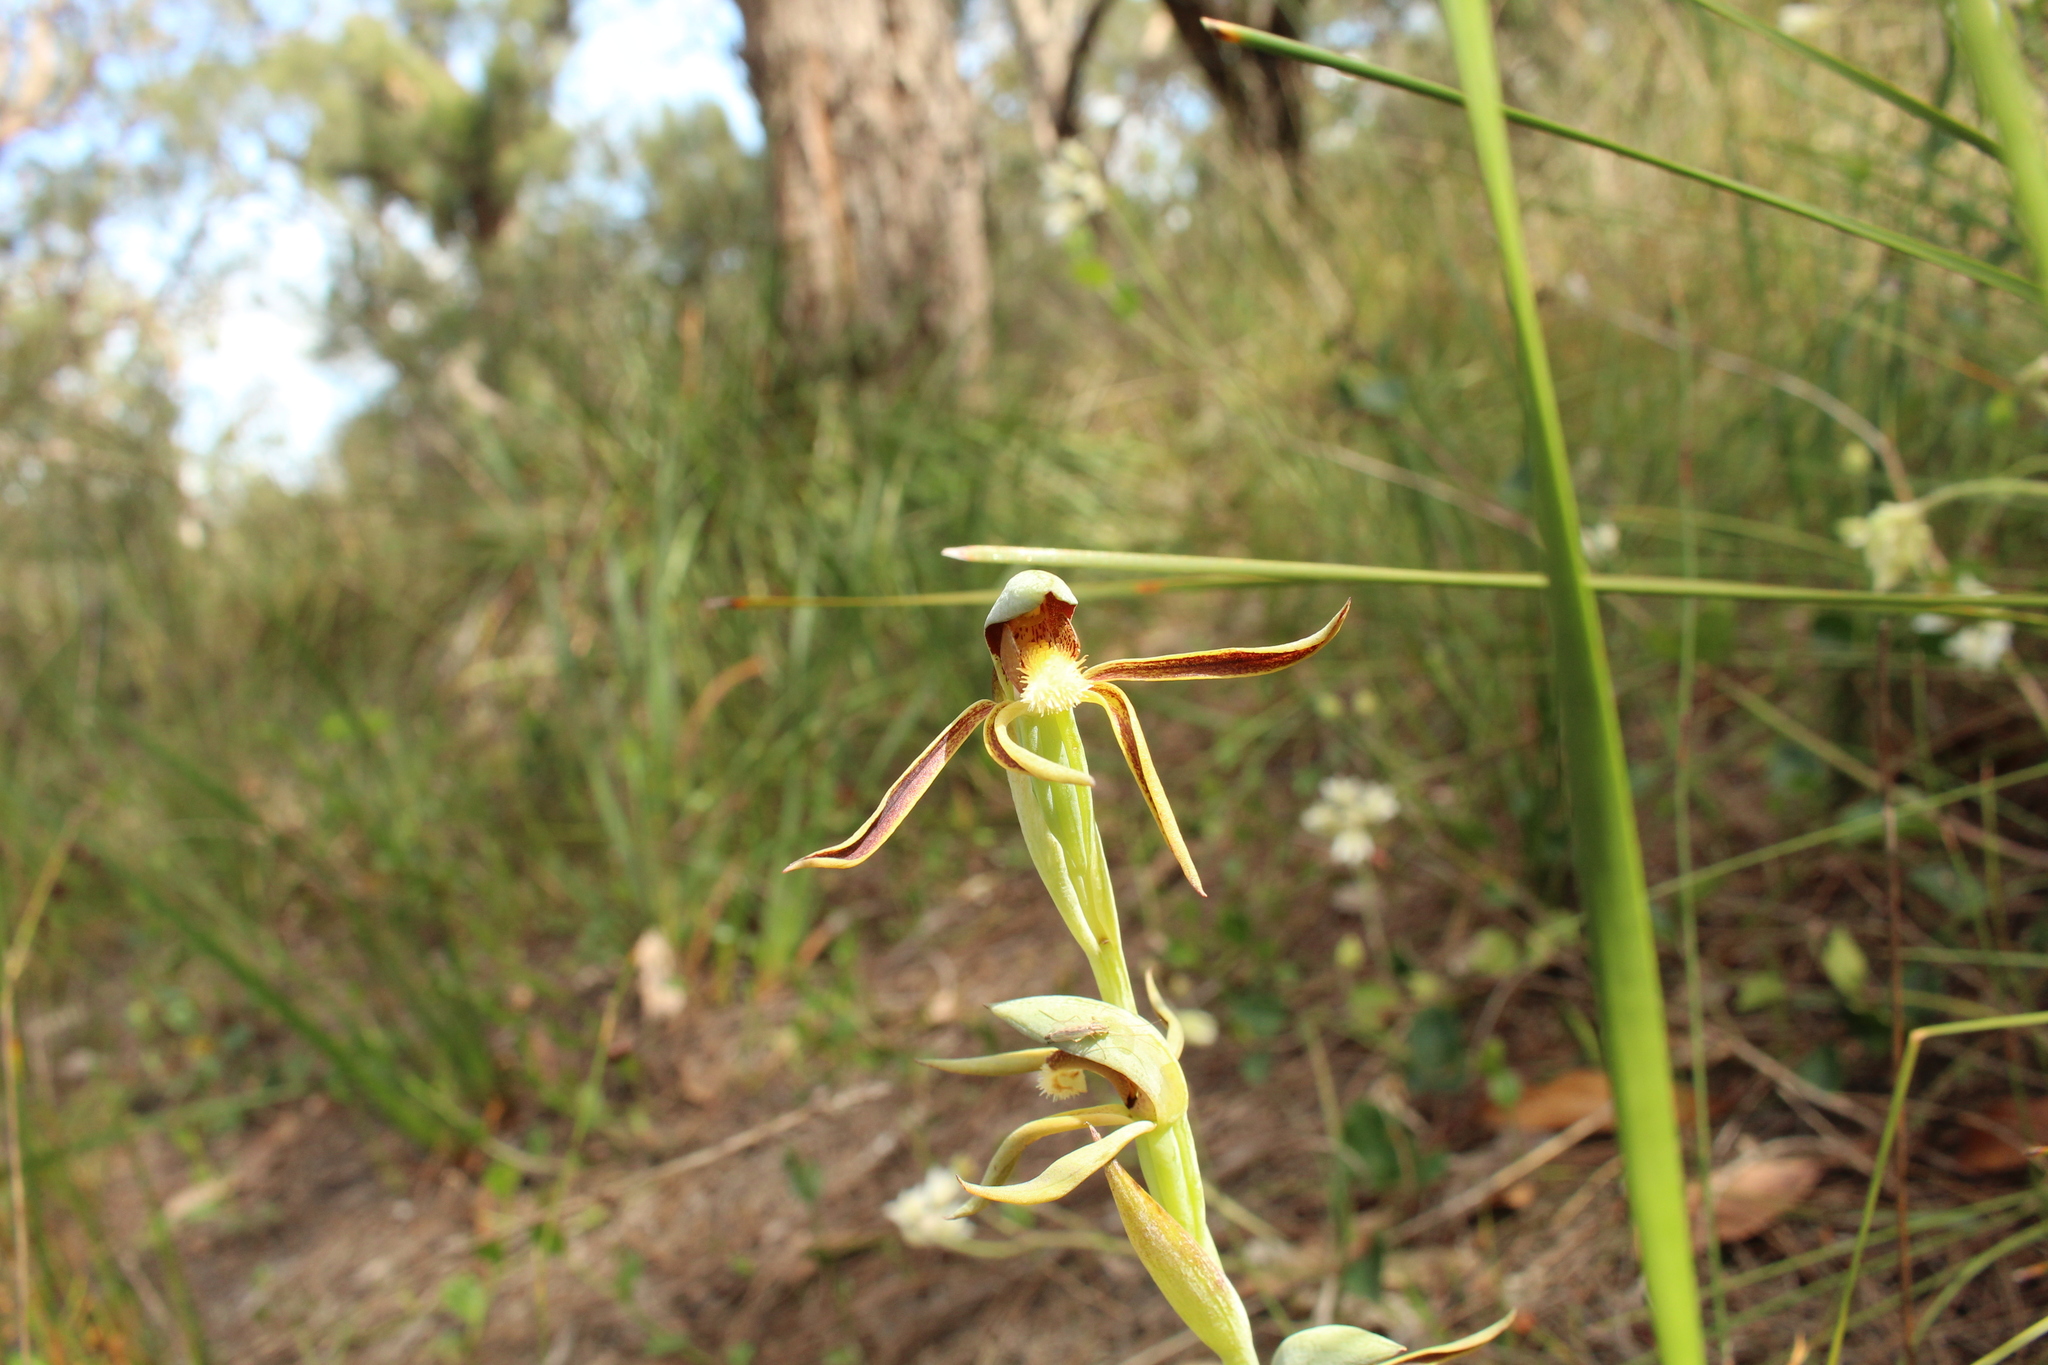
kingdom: Plantae
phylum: Tracheophyta
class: Liliopsida
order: Asparagales
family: Orchidaceae
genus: Lyperanthus
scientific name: Lyperanthus serratus
